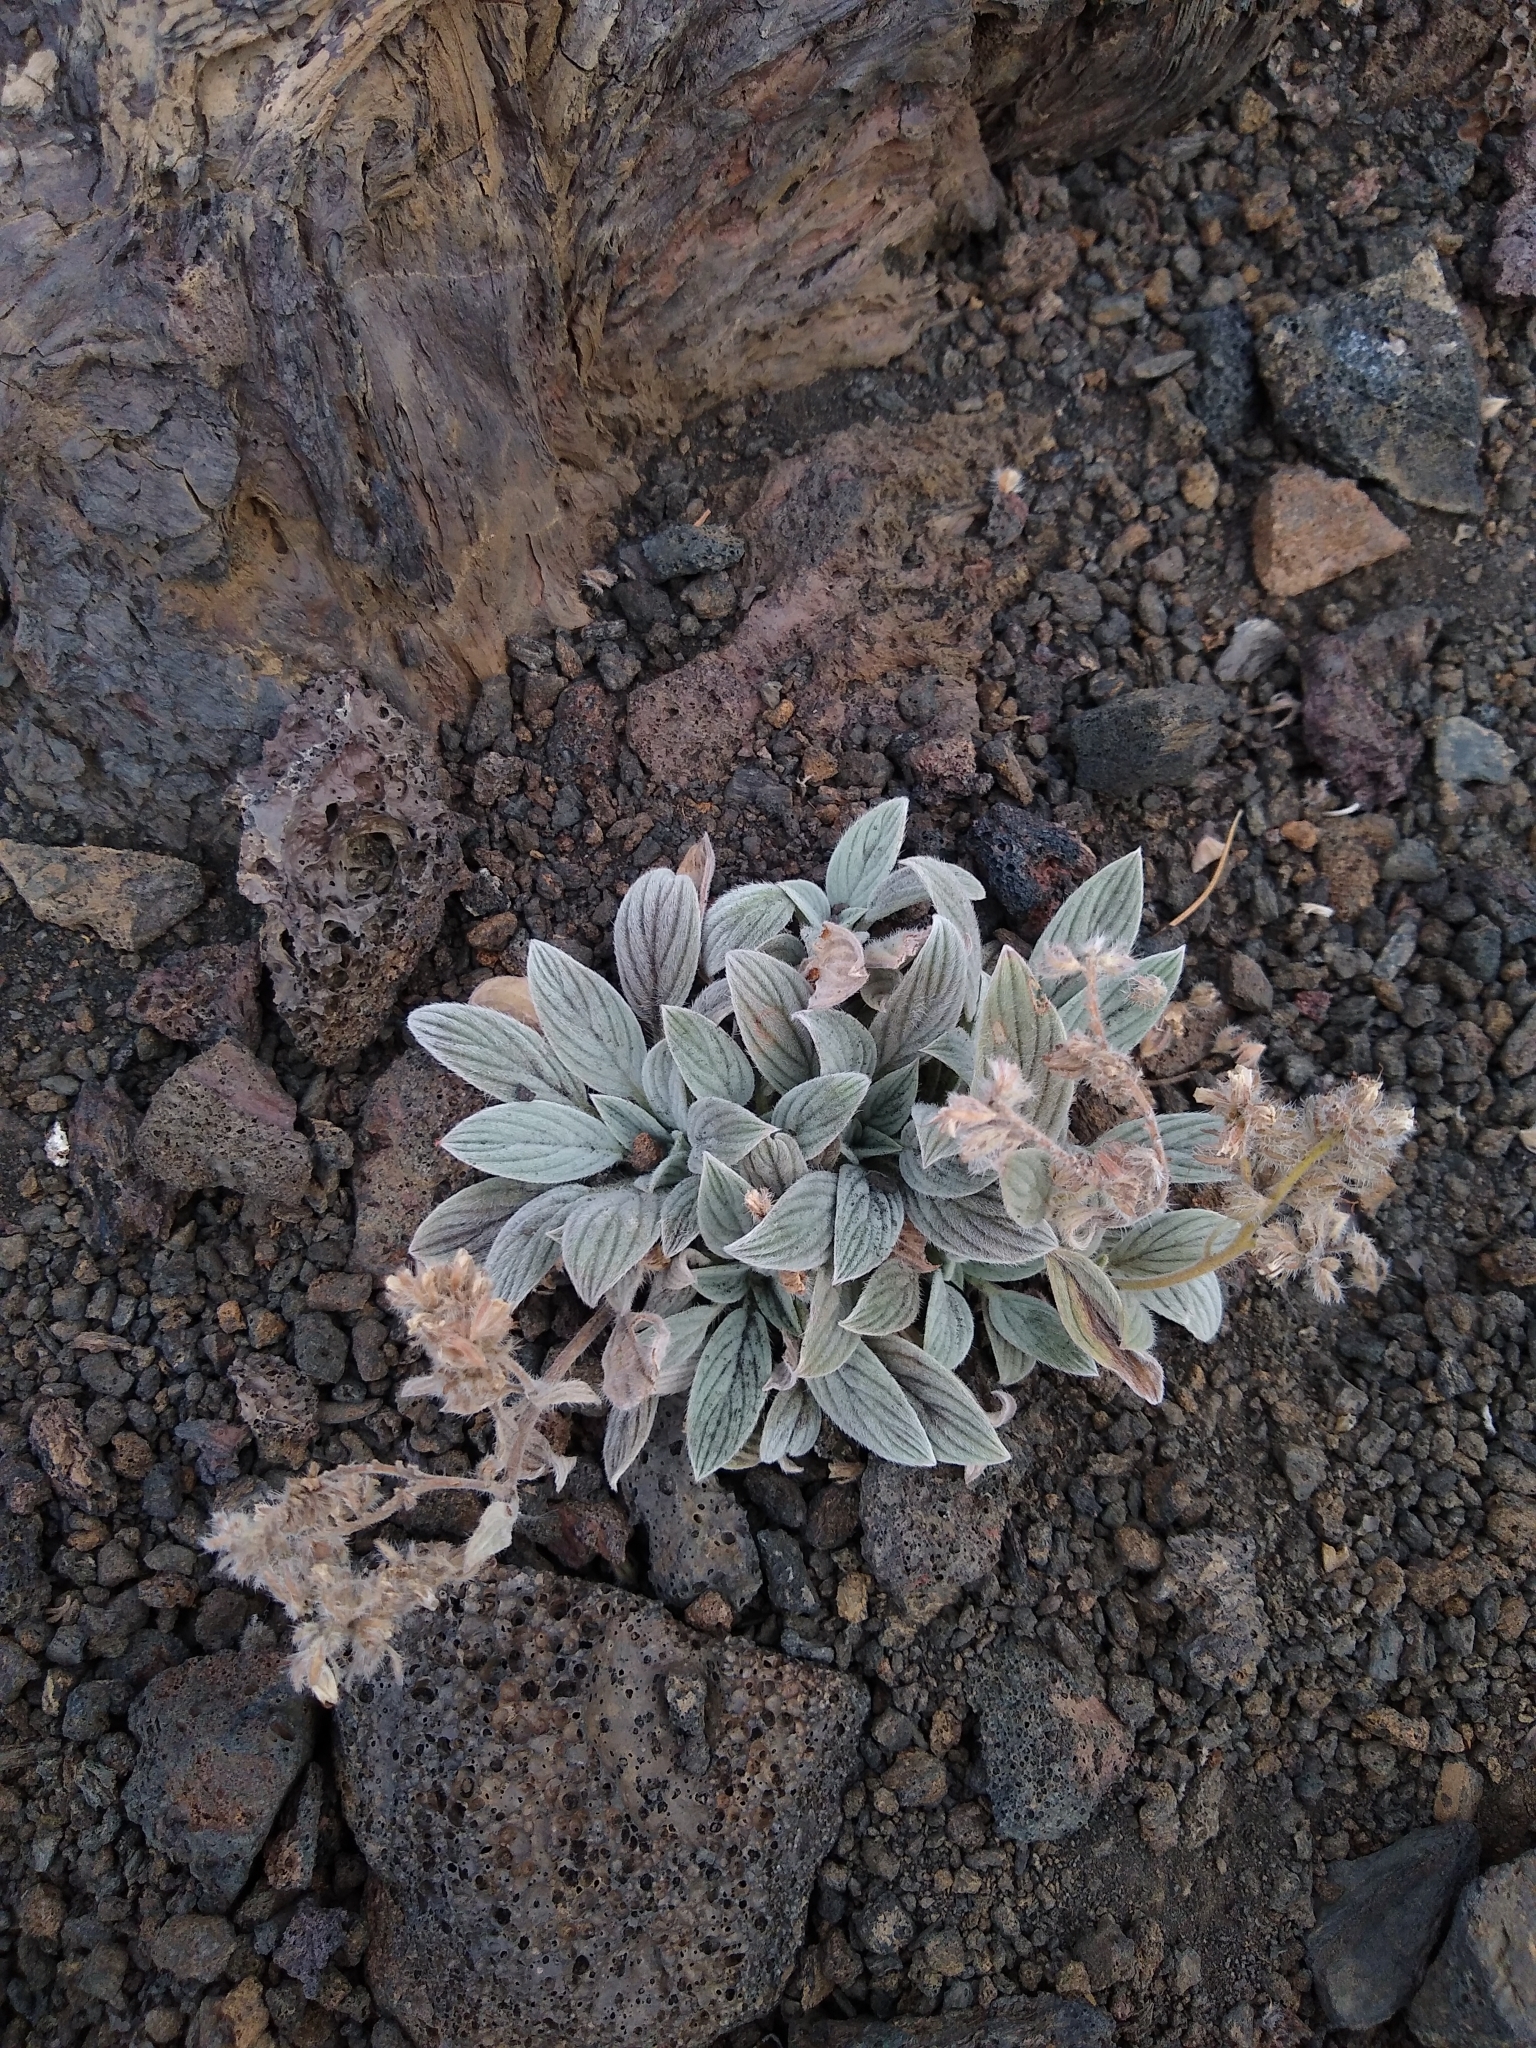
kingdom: Plantae
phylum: Tracheophyta
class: Magnoliopsida
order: Boraginales
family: Hydrophyllaceae
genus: Phacelia
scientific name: Phacelia hastata
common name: Silver-leaved phacelia
